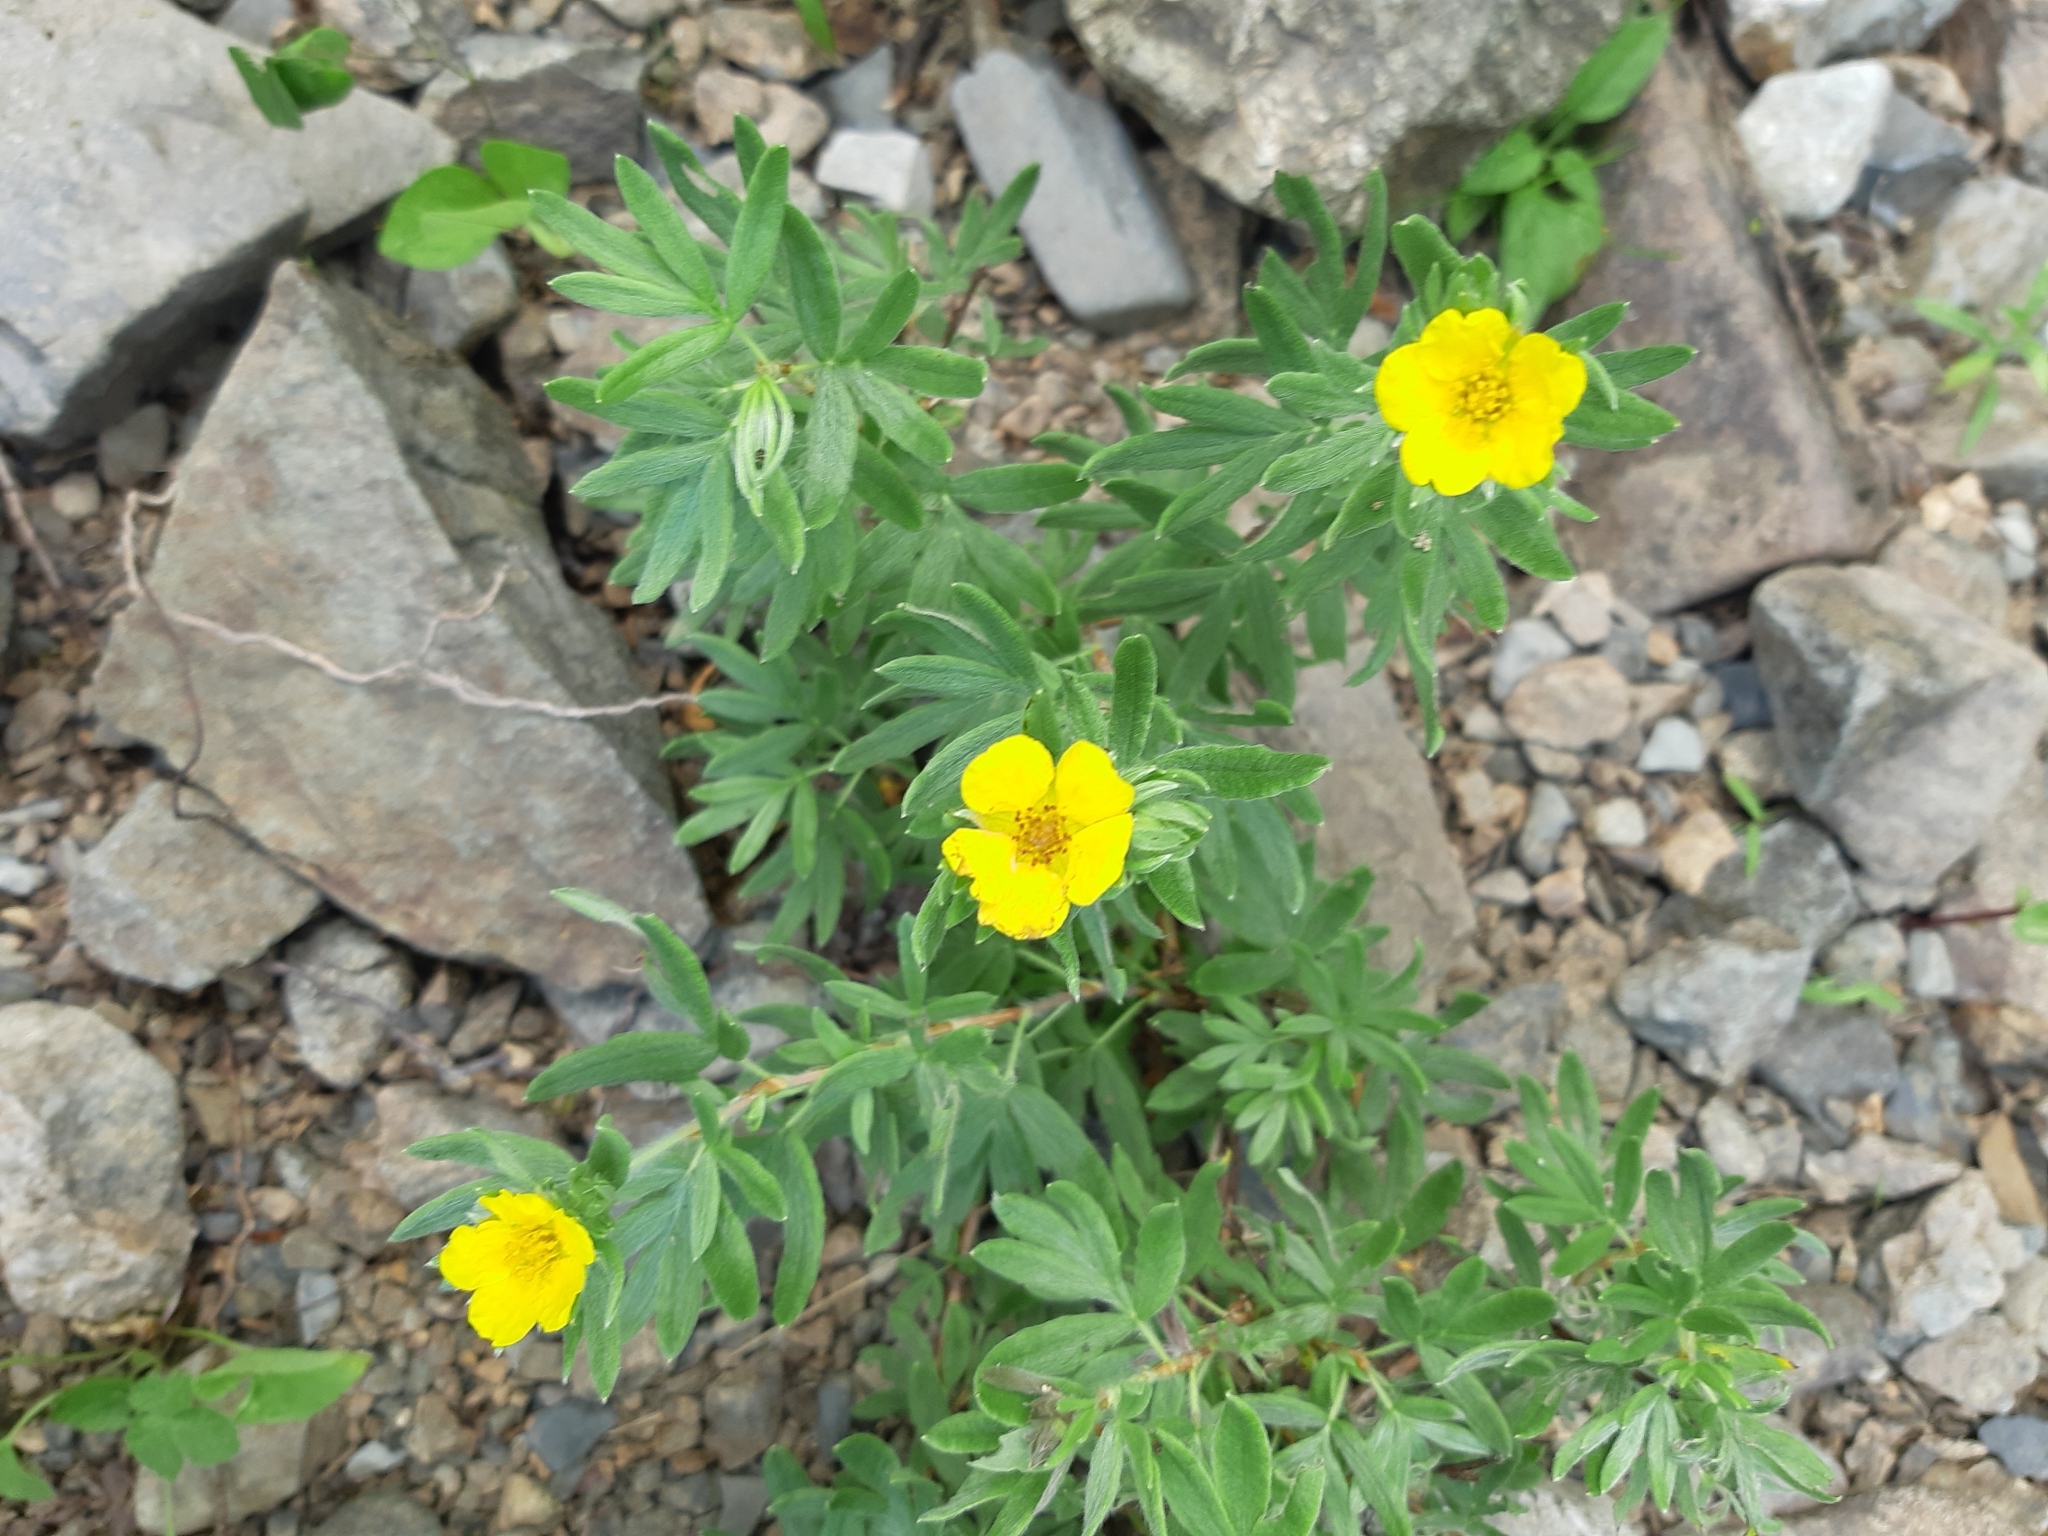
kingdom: Plantae
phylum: Tracheophyta
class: Magnoliopsida
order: Rosales
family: Rosaceae
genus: Dasiphora
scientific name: Dasiphora fruticosa
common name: Shrubby cinquefoil
